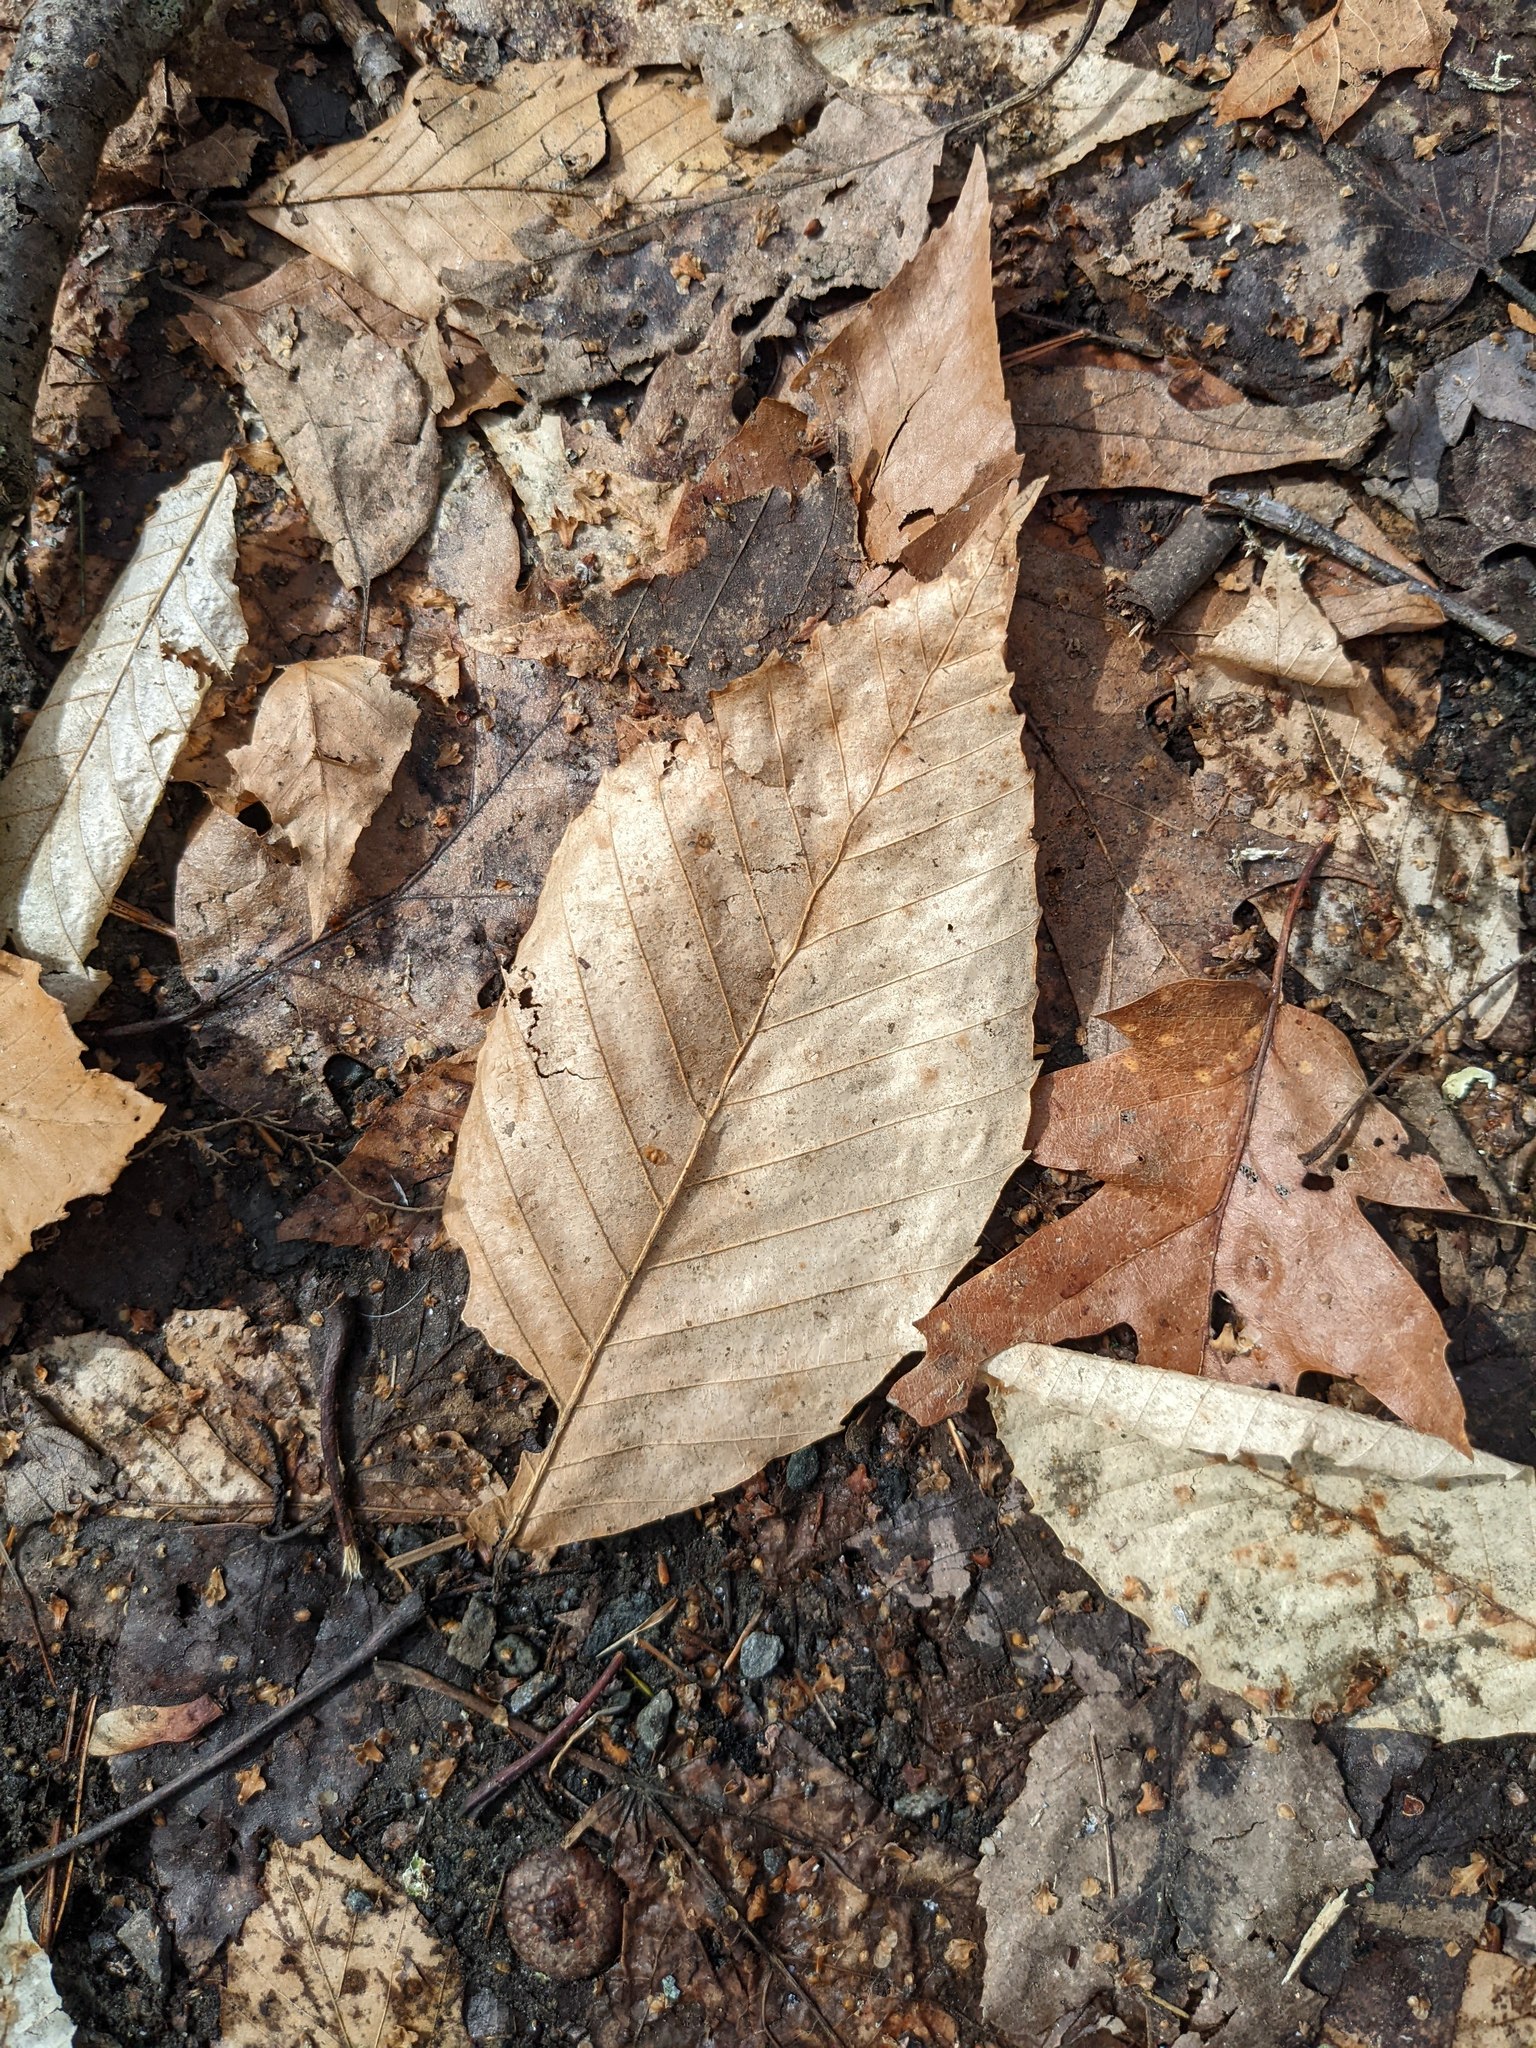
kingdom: Plantae
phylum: Tracheophyta
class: Magnoliopsida
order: Fagales
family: Fagaceae
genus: Fagus
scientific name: Fagus grandifolia
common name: American beech
